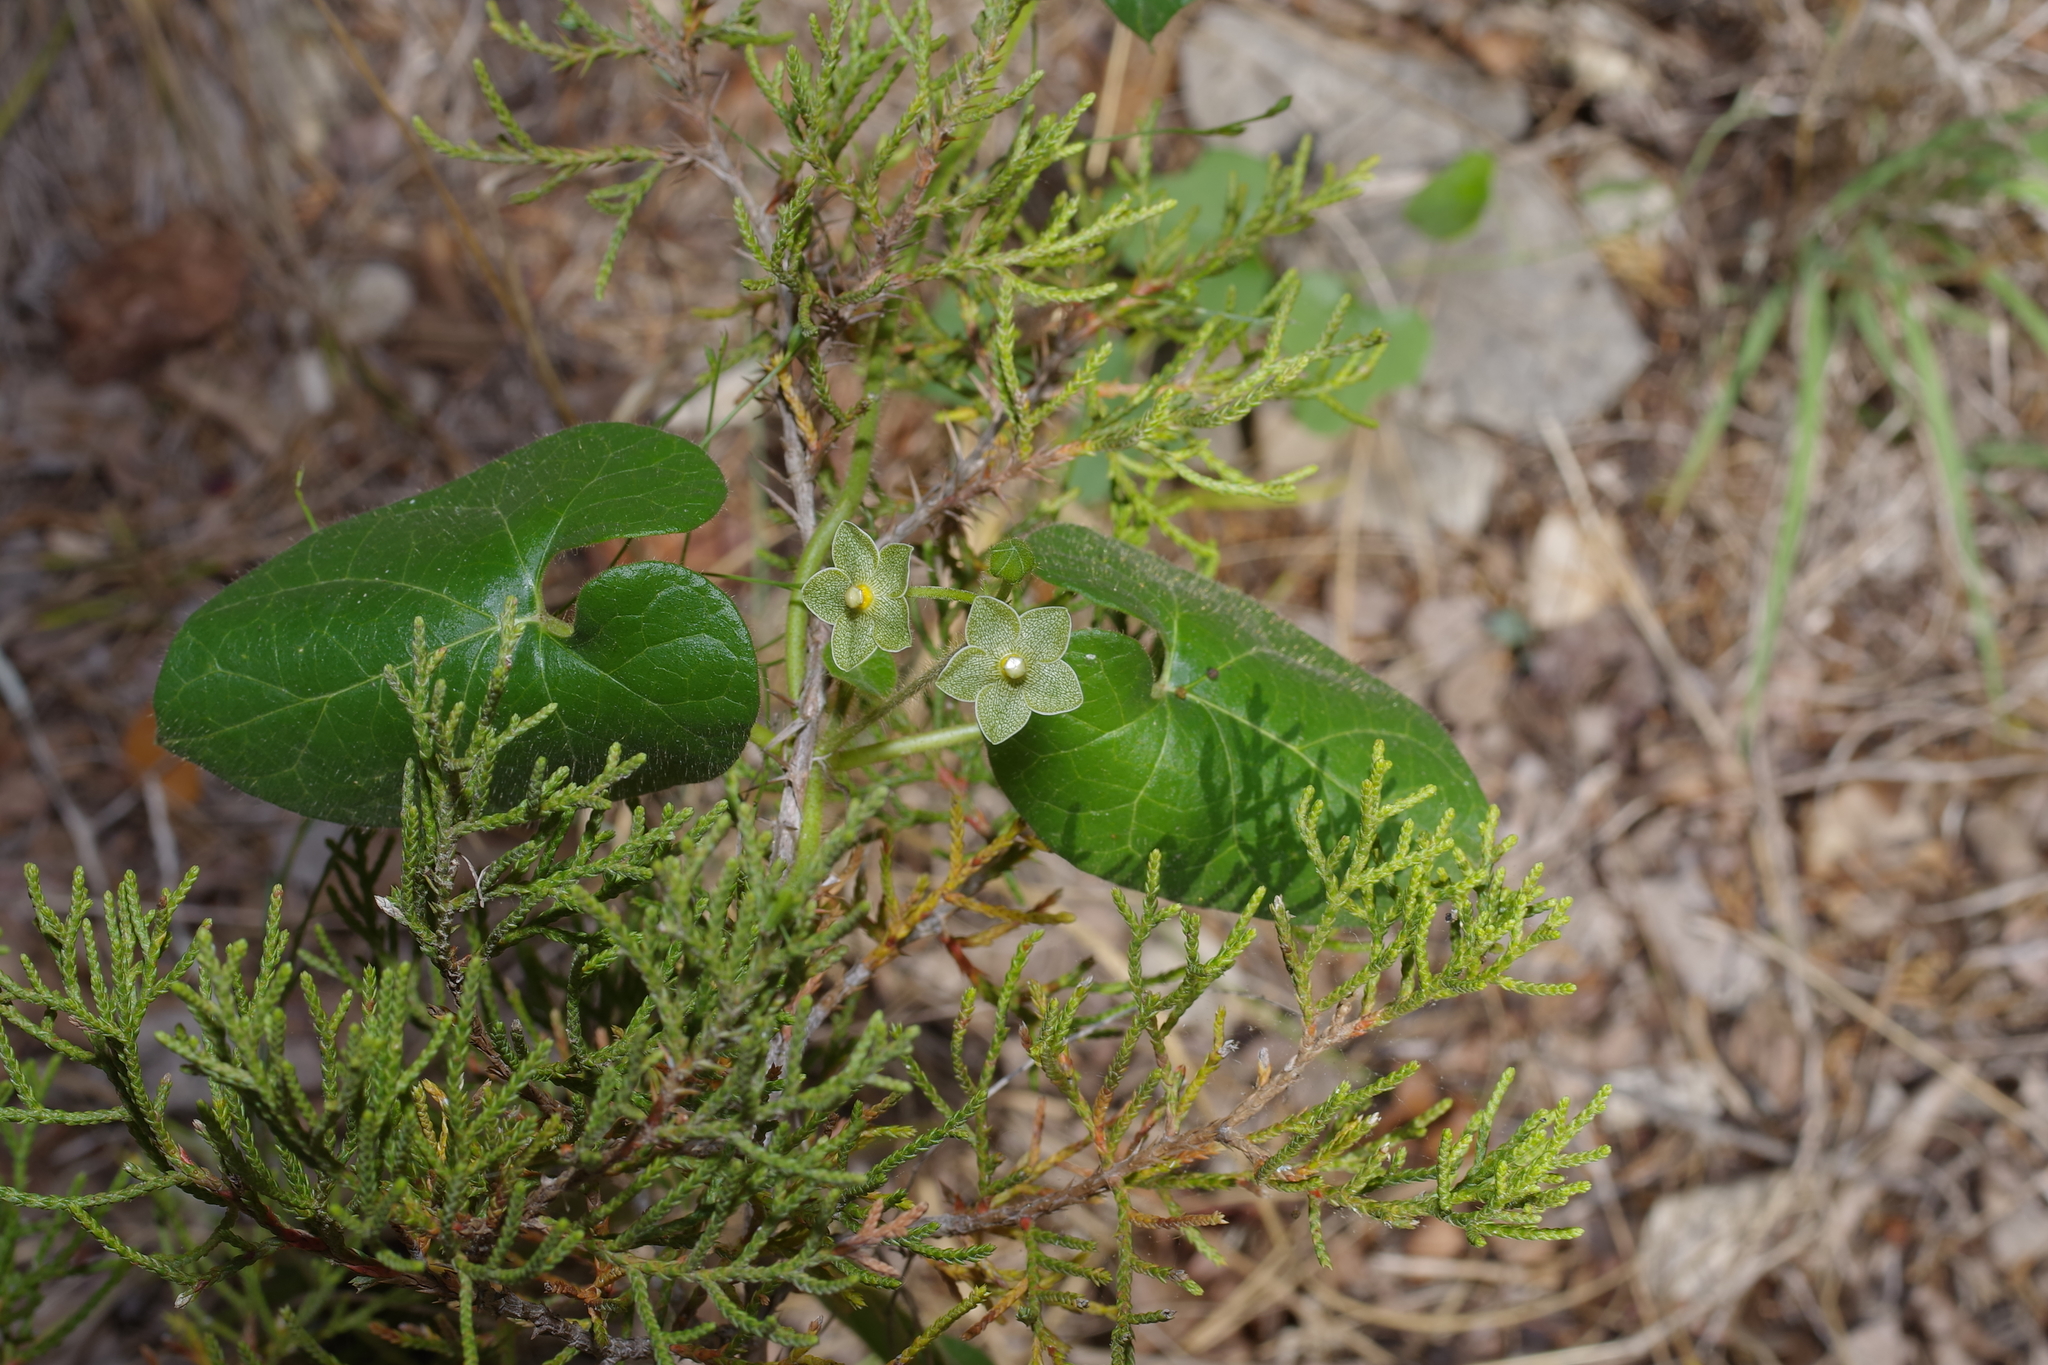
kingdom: Plantae
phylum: Tracheophyta
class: Magnoliopsida
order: Gentianales
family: Apocynaceae
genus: Dictyanthus
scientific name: Dictyanthus reticulatus
